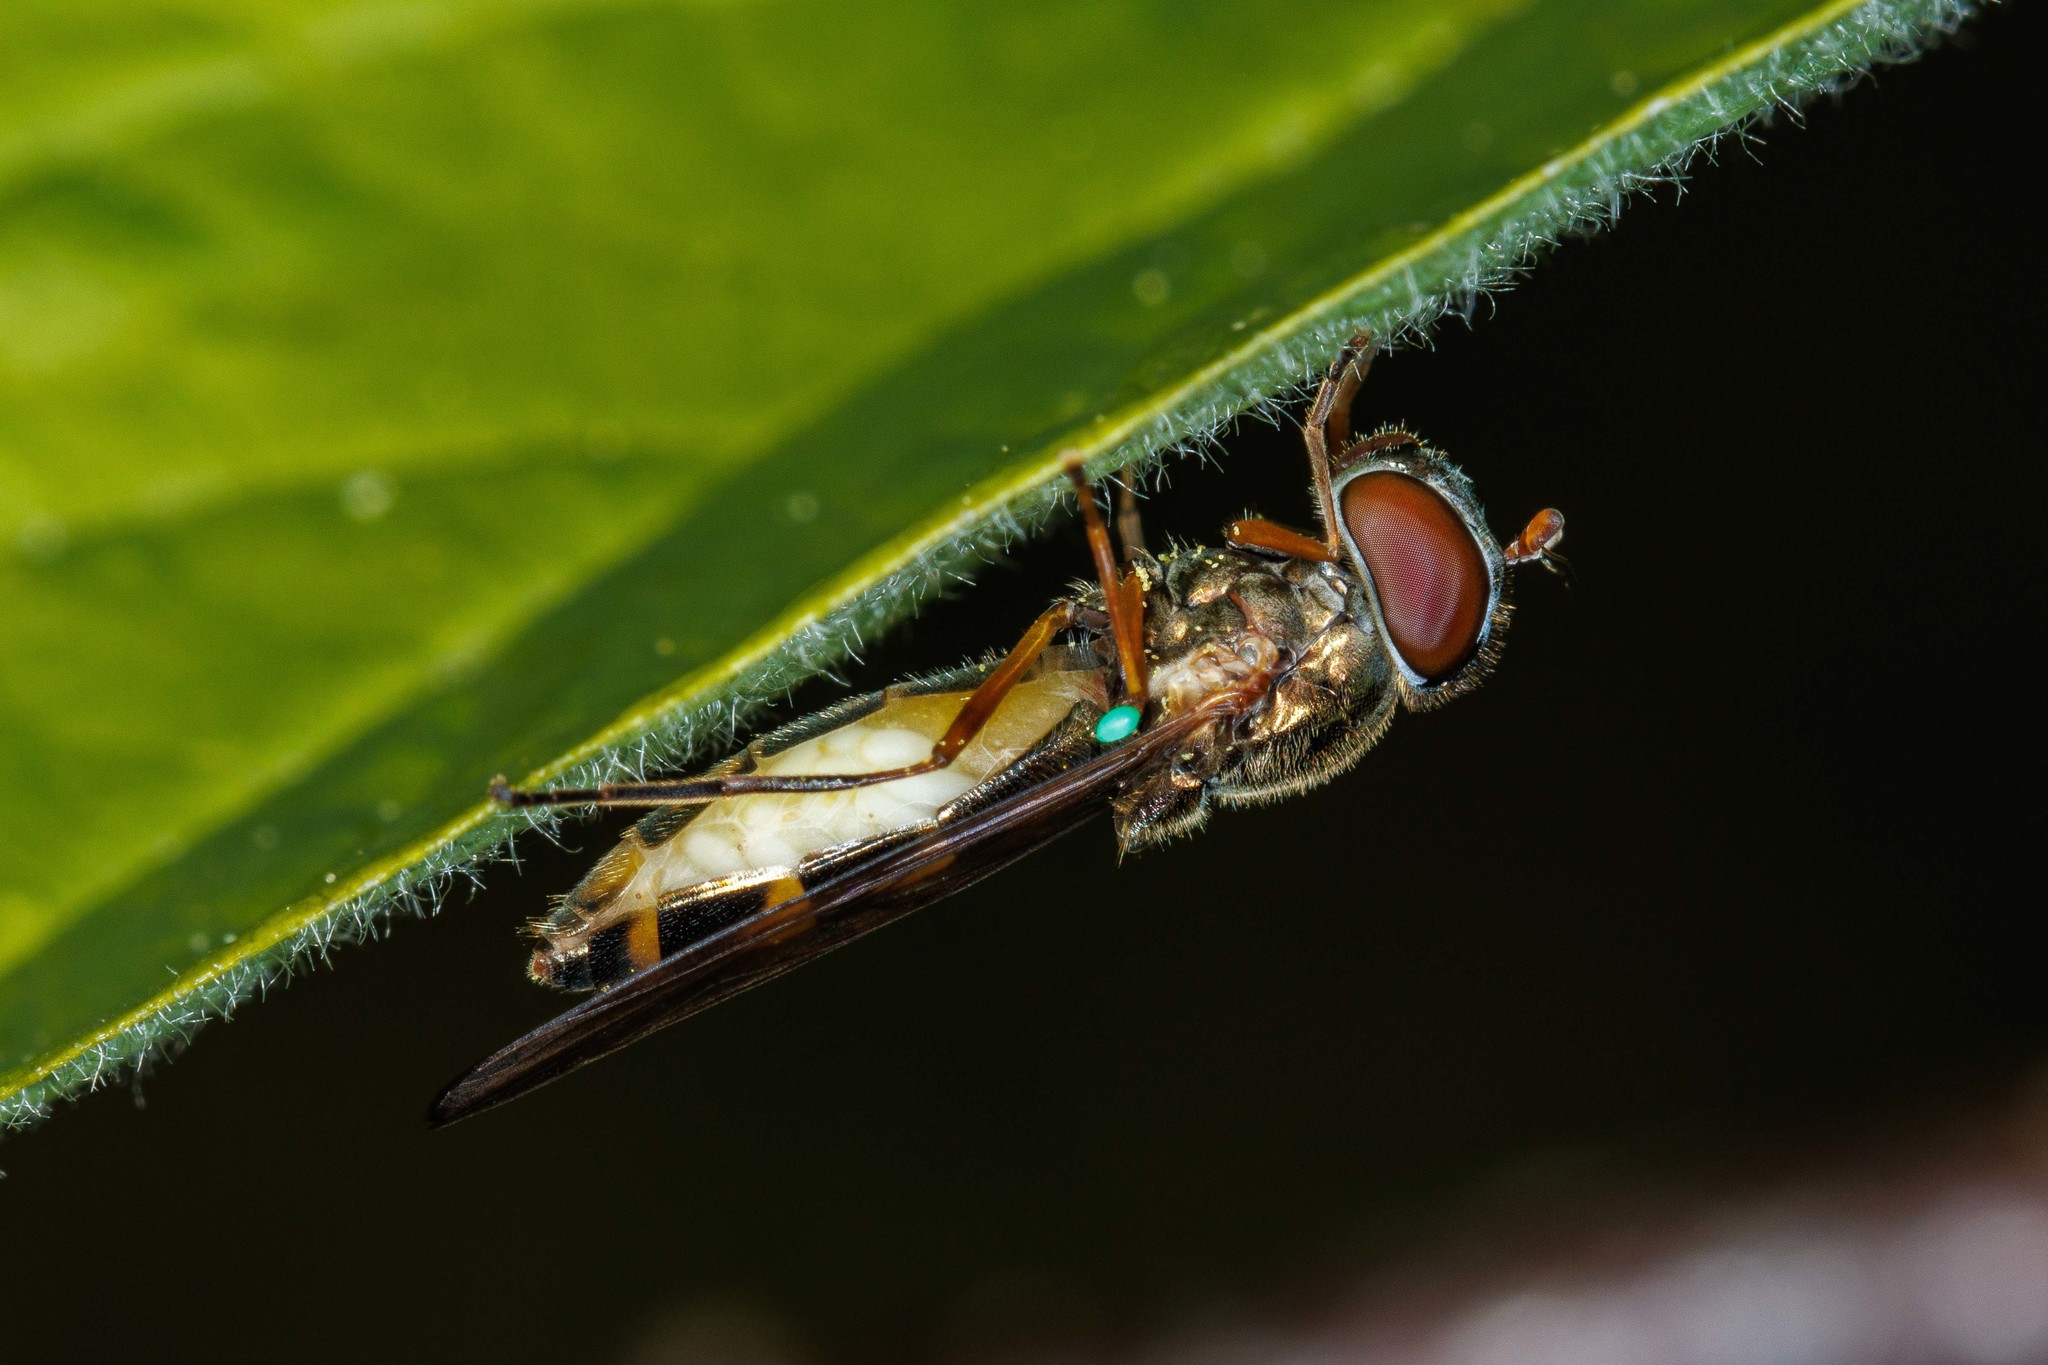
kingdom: Animalia
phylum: Arthropoda
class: Insecta
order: Diptera
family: Syrphidae
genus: Melanostoma
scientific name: Melanostoma mellina
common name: Hover fly
